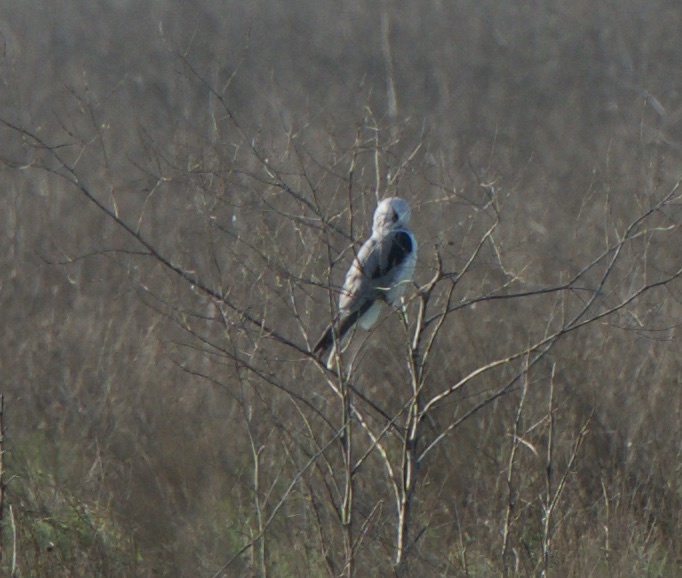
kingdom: Animalia
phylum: Chordata
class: Aves
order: Accipitriformes
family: Accipitridae
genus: Elanus
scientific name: Elanus leucurus
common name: White-tailed kite
